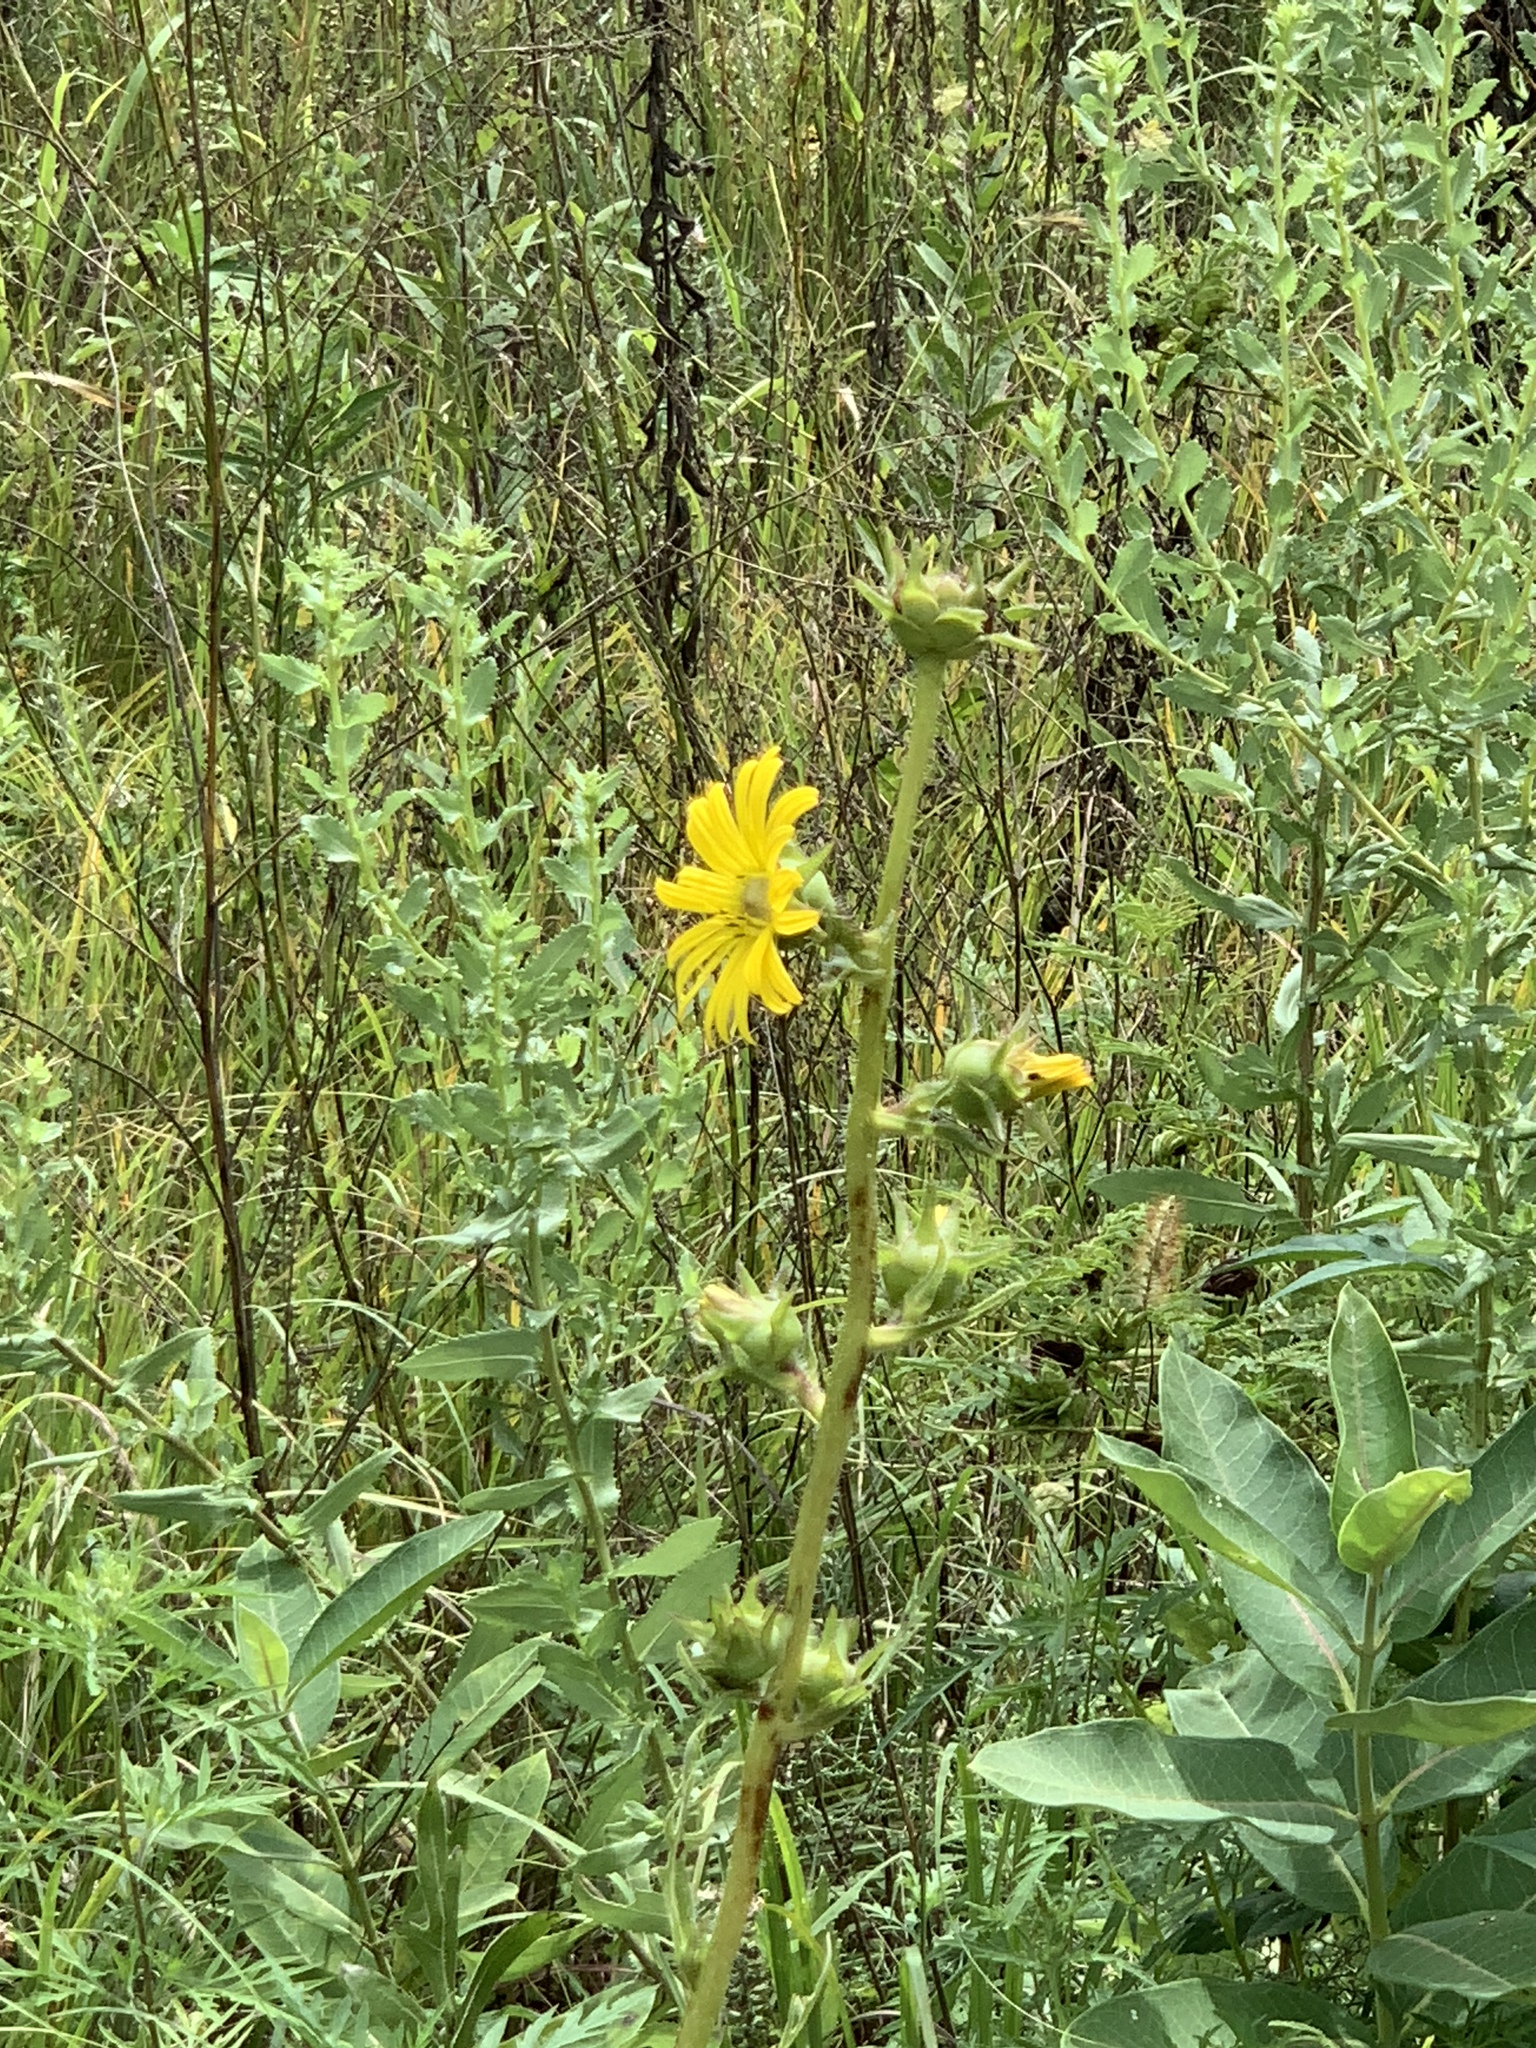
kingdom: Plantae
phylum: Tracheophyta
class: Magnoliopsida
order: Asterales
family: Asteraceae
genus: Silphium
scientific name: Silphium laciniatum
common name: Polarplant
